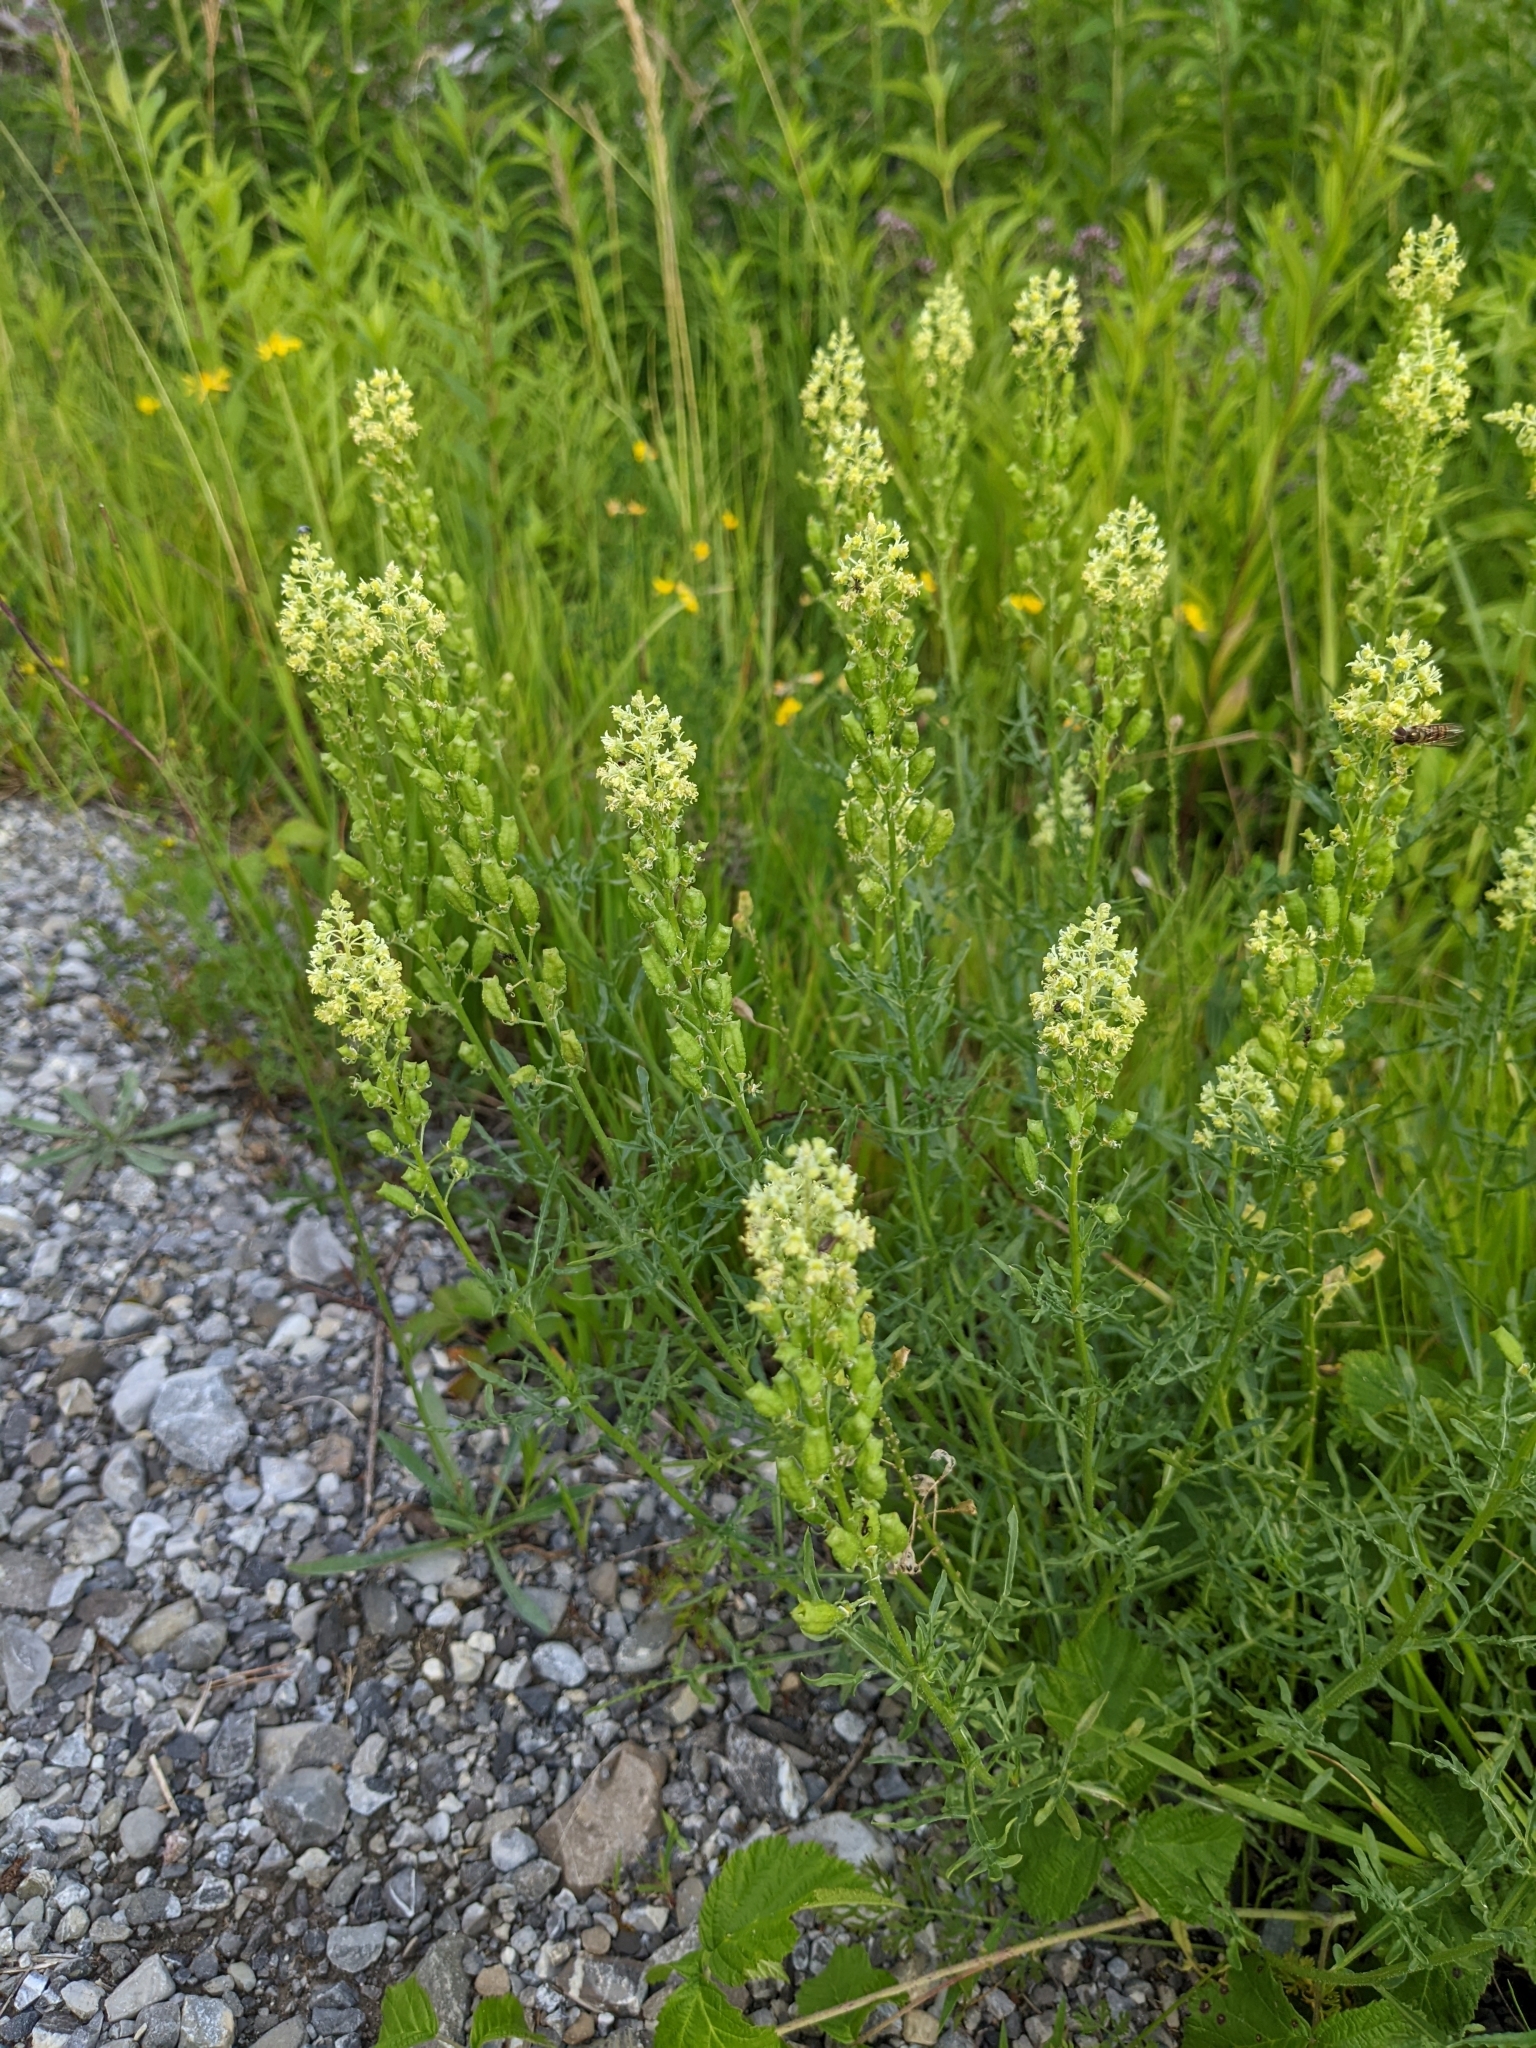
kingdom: Plantae
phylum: Tracheophyta
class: Magnoliopsida
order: Brassicales
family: Resedaceae
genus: Reseda
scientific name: Reseda lutea
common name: Wild mignonette
